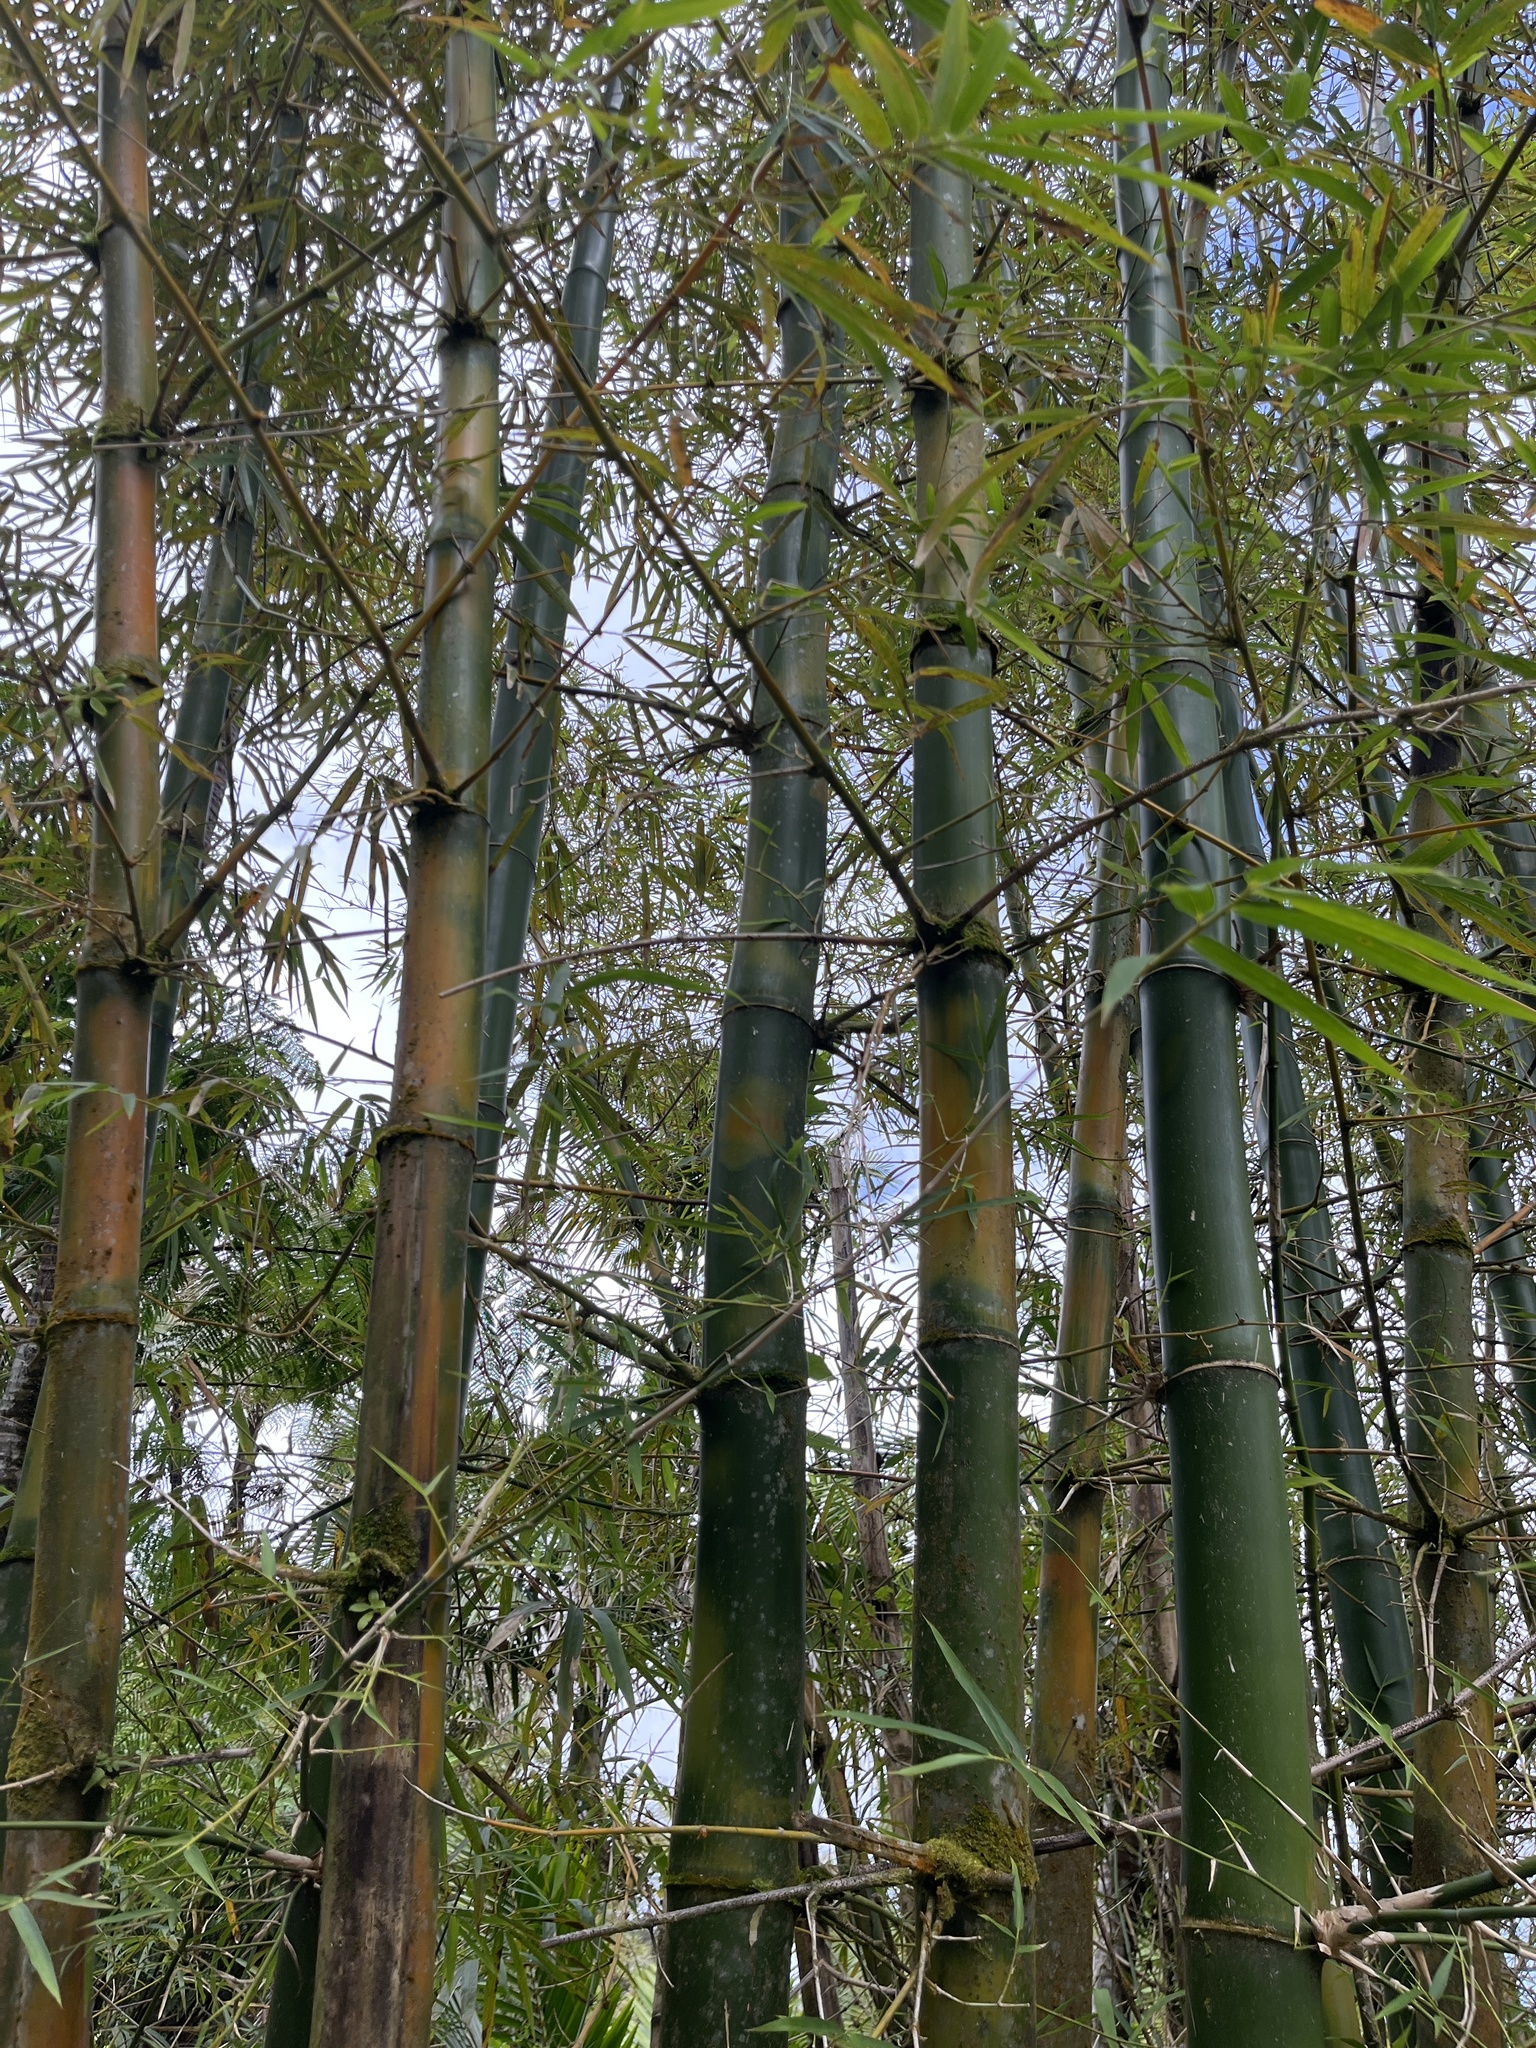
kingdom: Plantae
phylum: Tracheophyta
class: Liliopsida
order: Poales
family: Poaceae
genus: Bambusa
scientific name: Bambusa vulgaris
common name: Common bamboo
